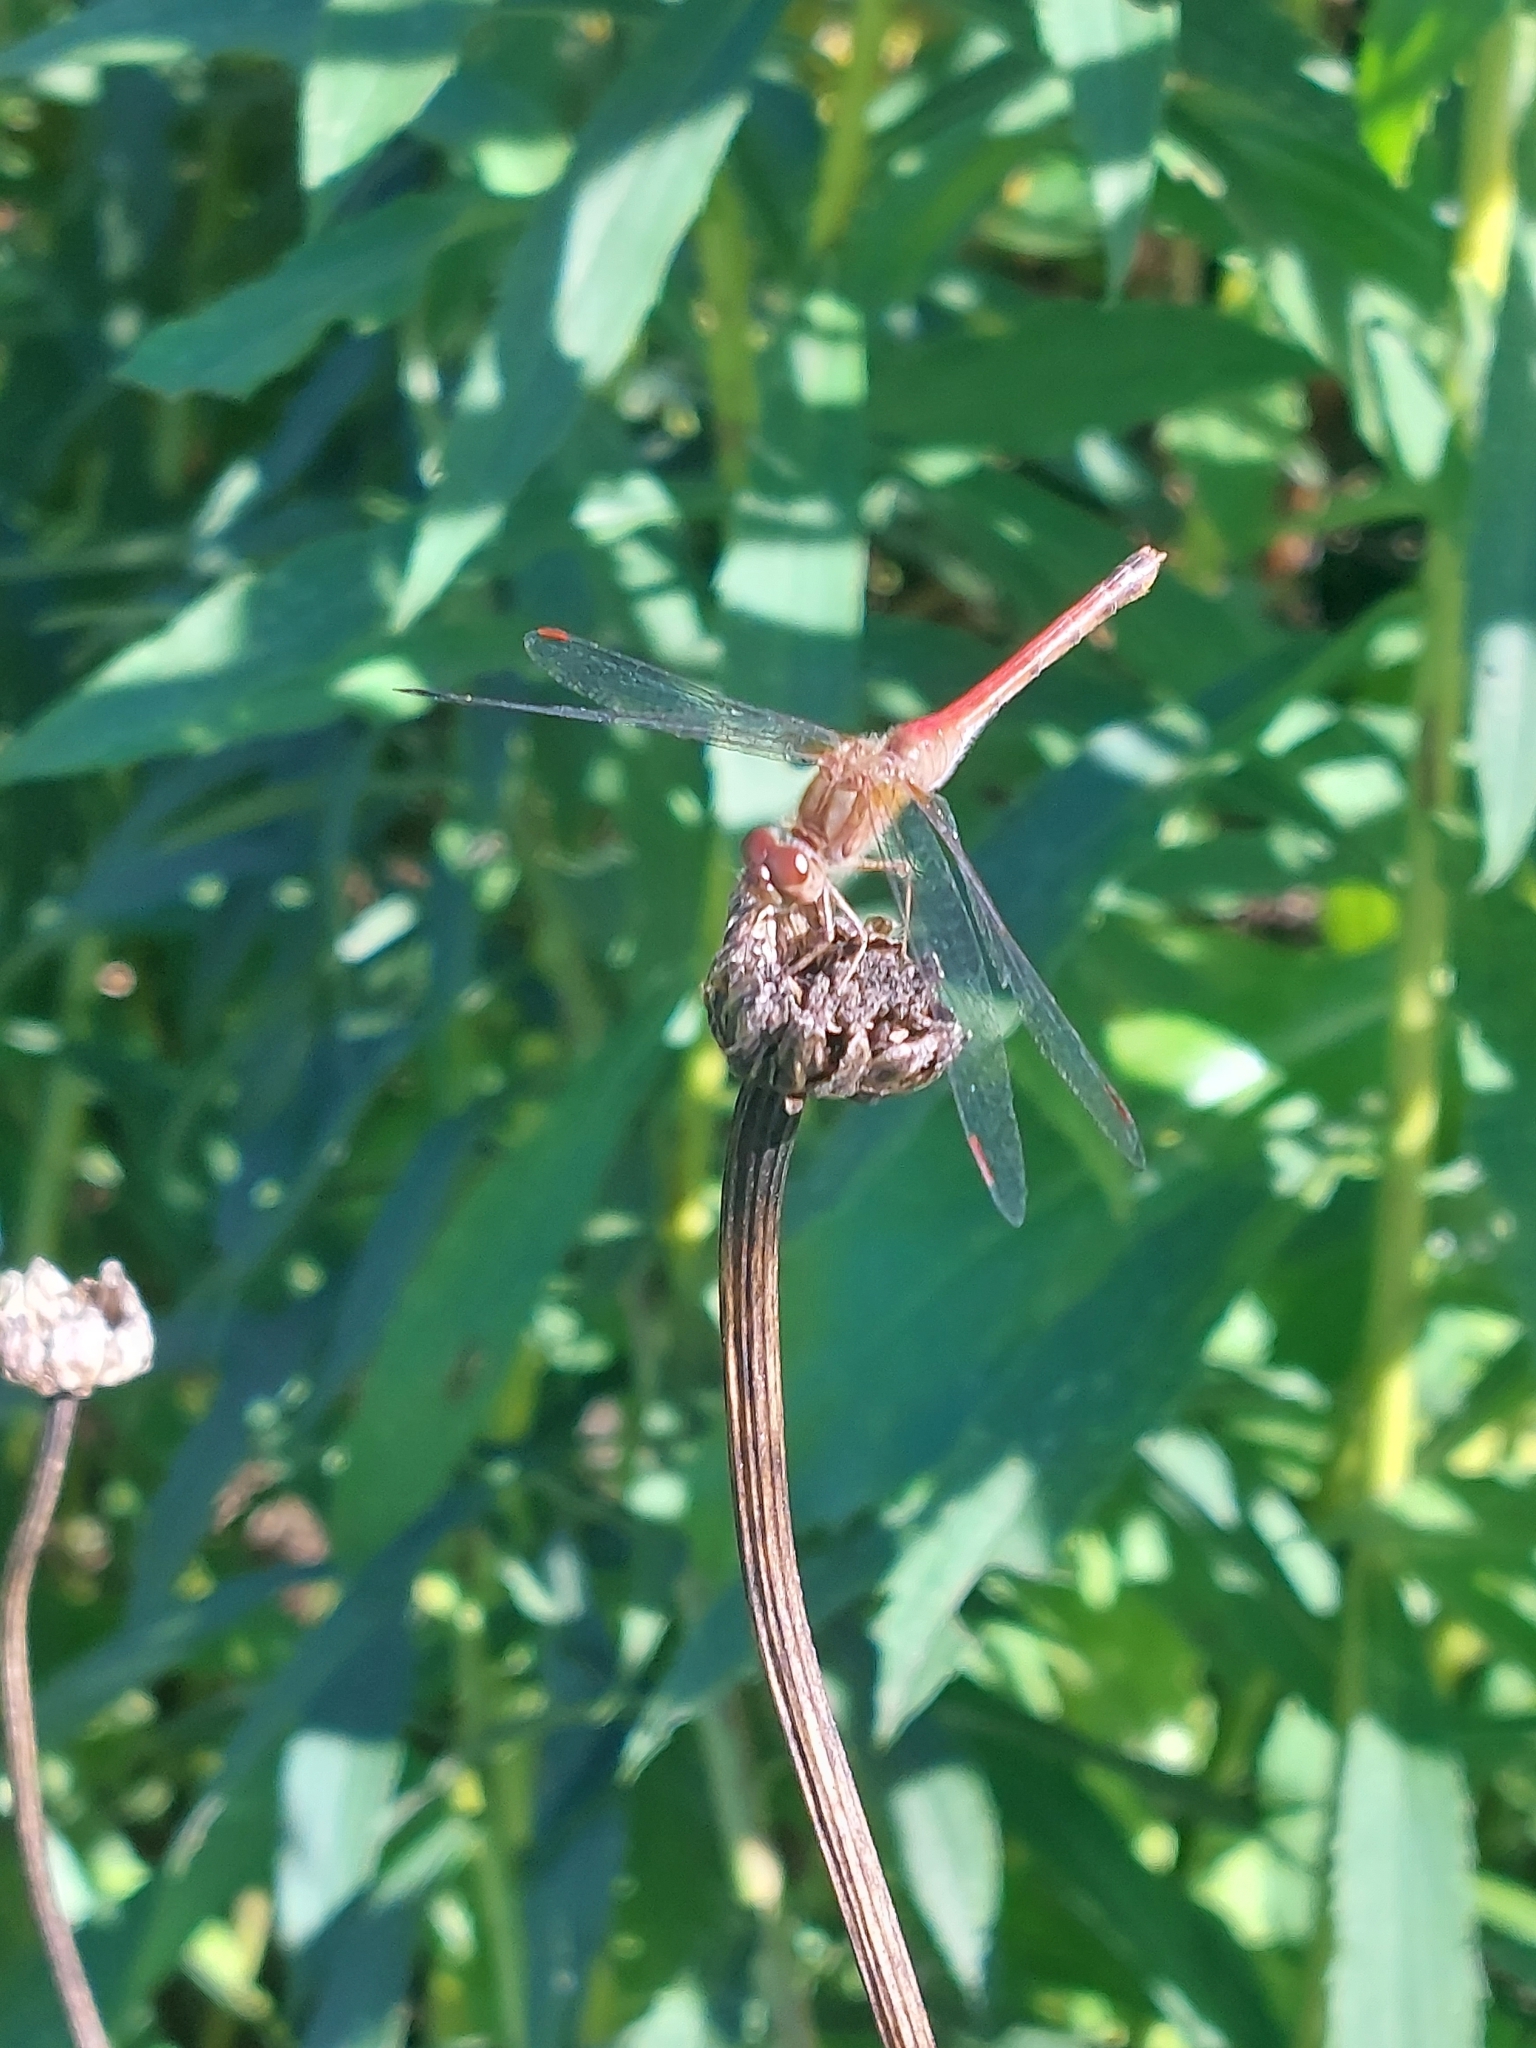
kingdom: Animalia
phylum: Arthropoda
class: Insecta
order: Odonata
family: Libellulidae
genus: Sympetrum
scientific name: Sympetrum vicinum
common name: Autumn meadowhawk
